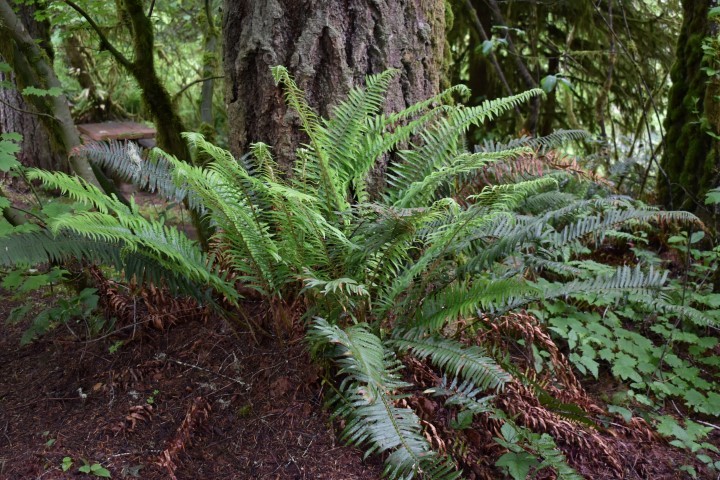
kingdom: Plantae
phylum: Tracheophyta
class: Polypodiopsida
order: Polypodiales
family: Dryopteridaceae
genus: Polystichum
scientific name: Polystichum munitum
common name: Western sword-fern
